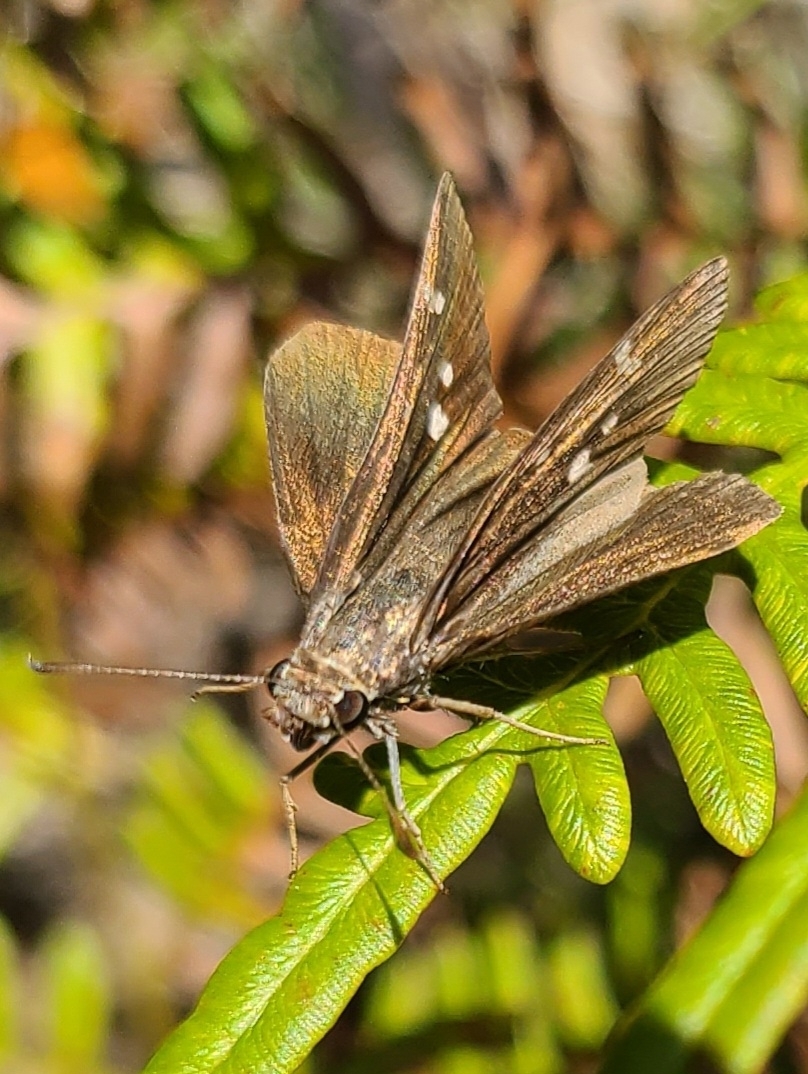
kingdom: Animalia
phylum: Arthropoda
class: Insecta
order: Lepidoptera
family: Hesperiidae
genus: Lerema
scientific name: Lerema accius
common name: Clouded skipper
